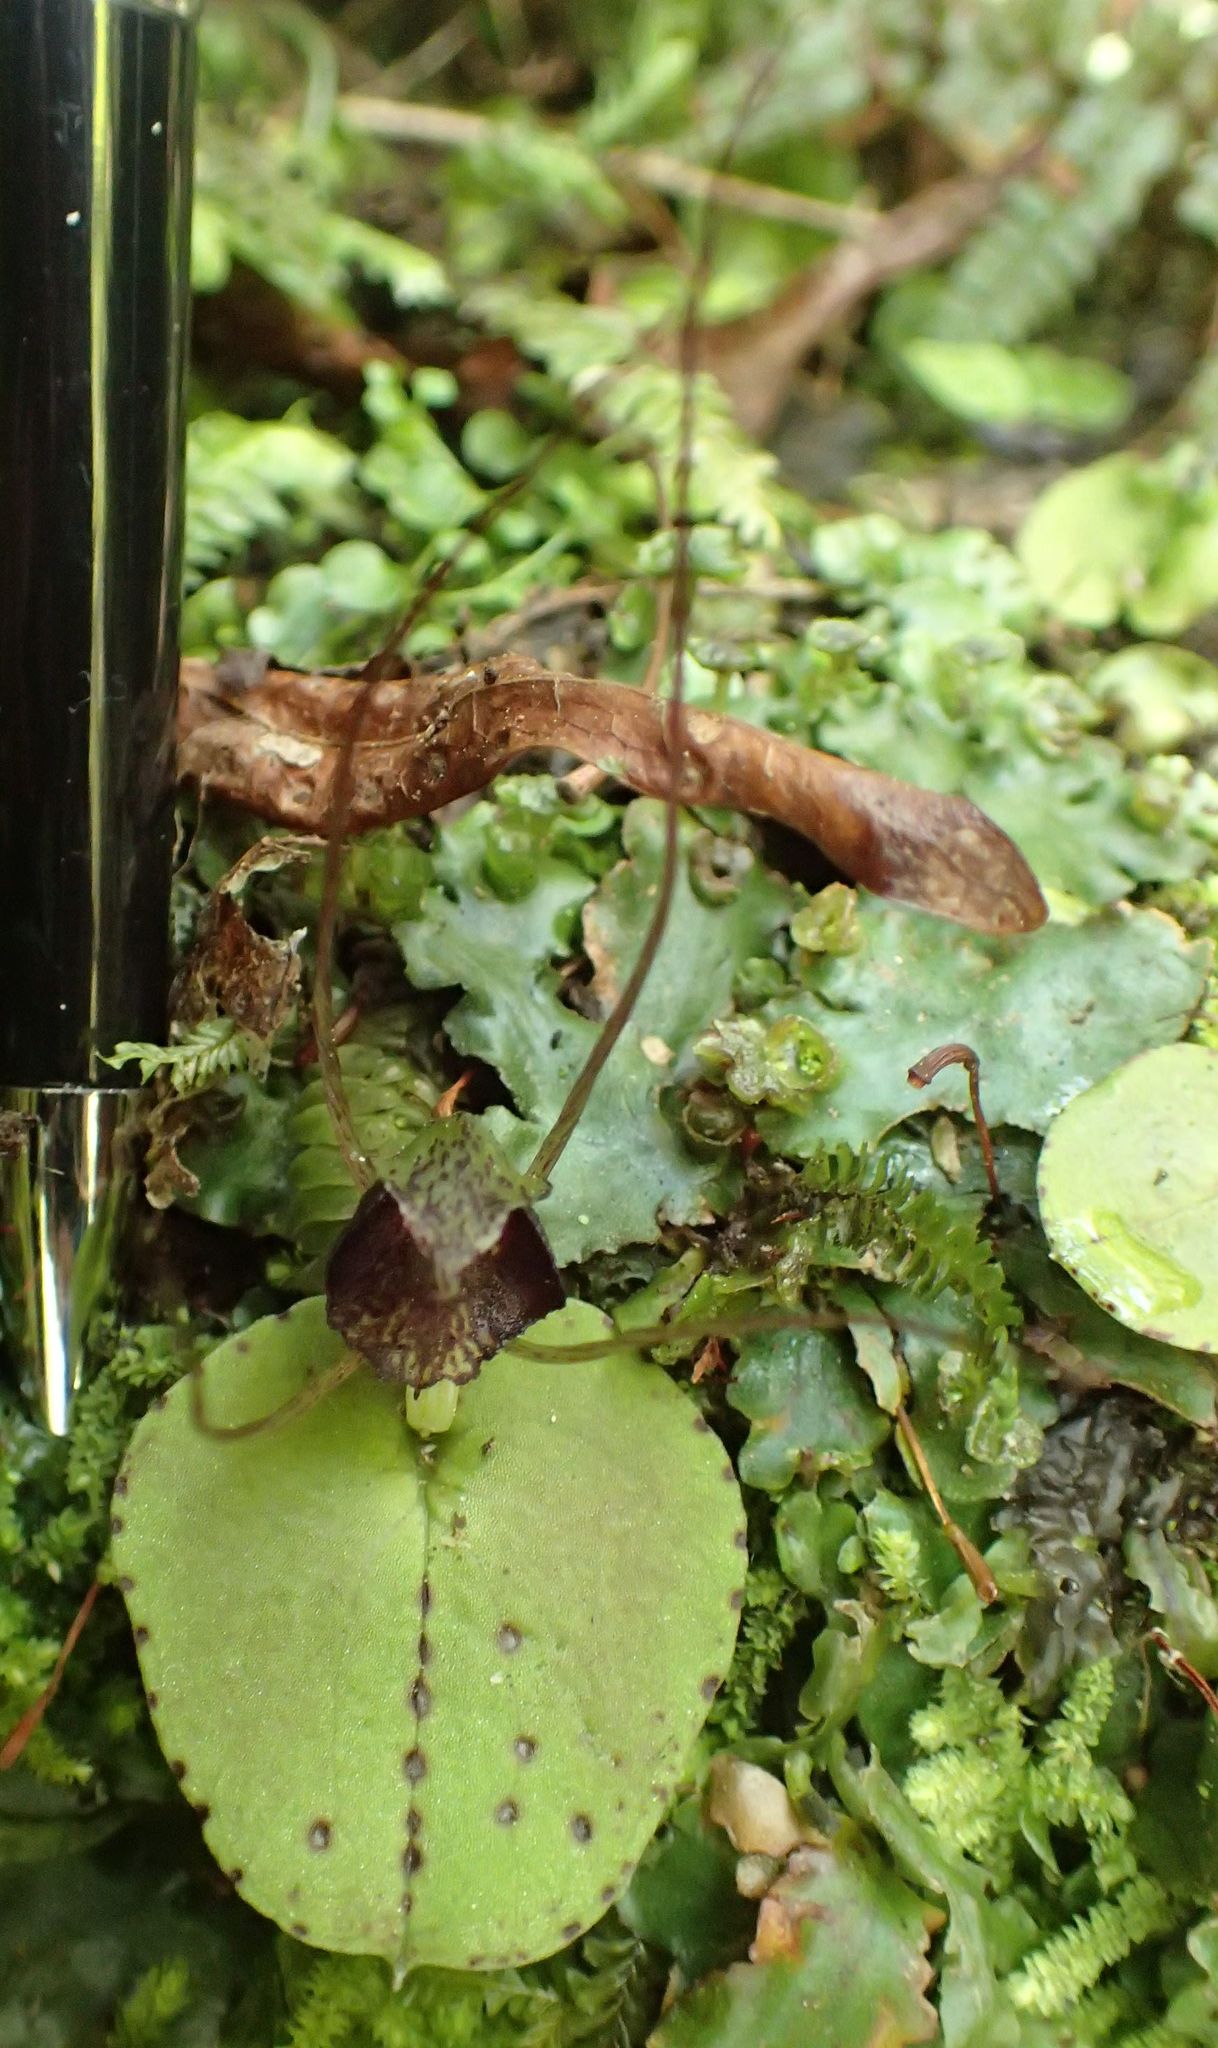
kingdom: Plantae
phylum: Tracheophyta
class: Liliopsida
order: Asparagales
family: Orchidaceae
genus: Corybas
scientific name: Corybas iridescens
